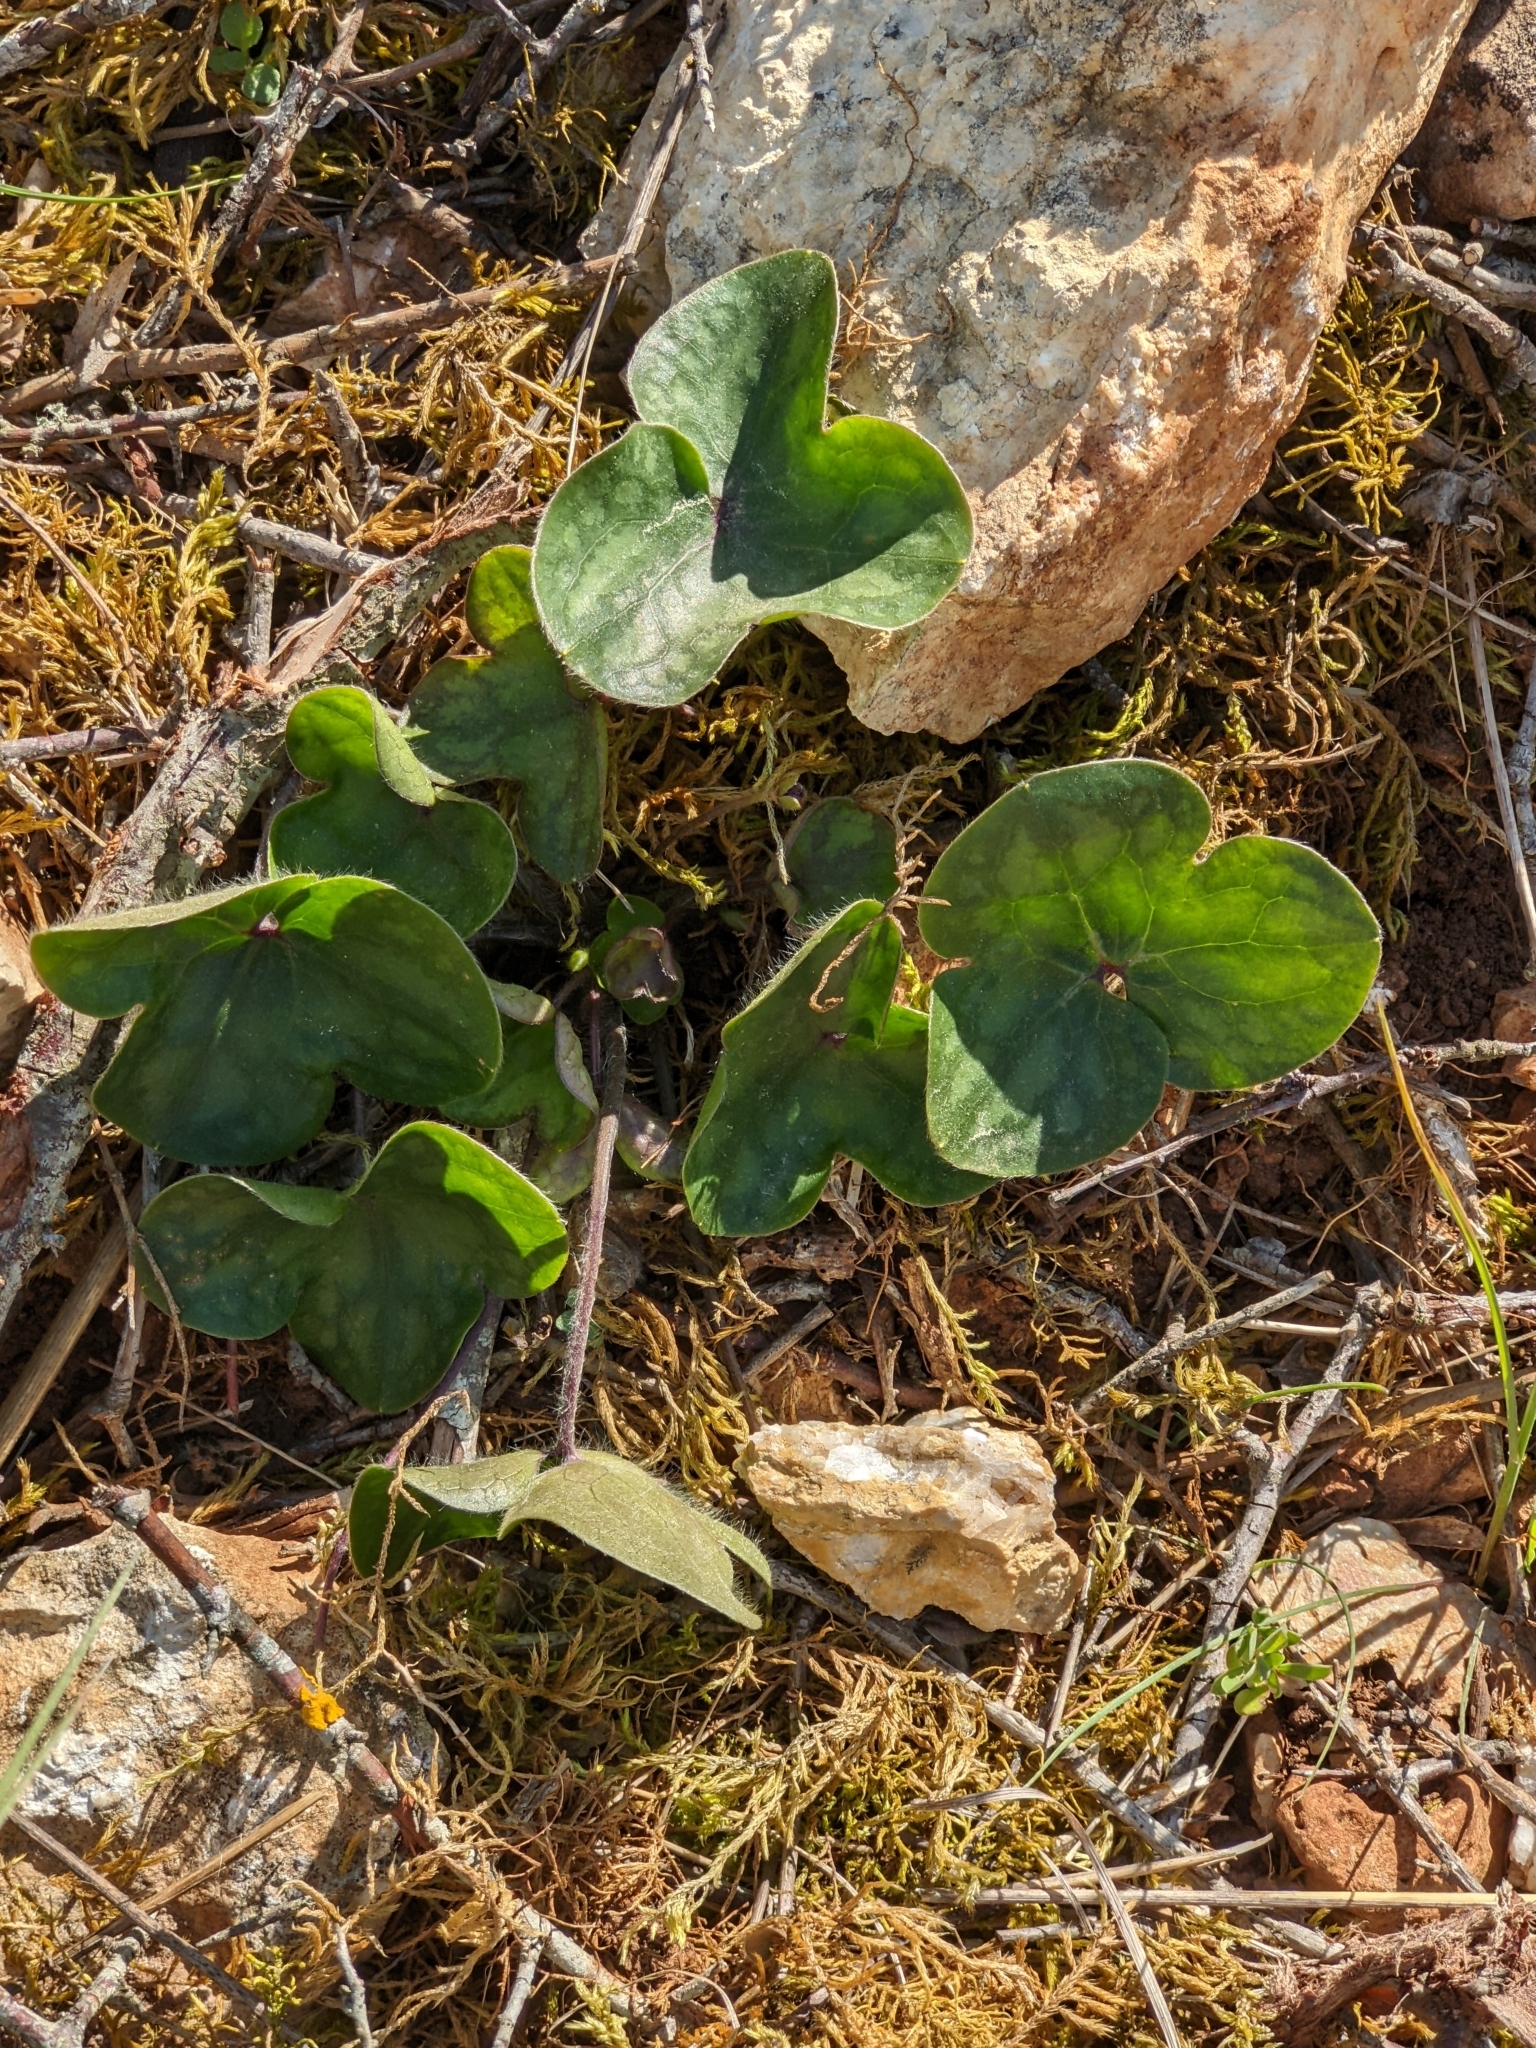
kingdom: Plantae
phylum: Tracheophyta
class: Magnoliopsida
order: Ranunculales
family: Ranunculaceae
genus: Hepatica
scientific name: Hepatica nobilis
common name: Liverleaf
